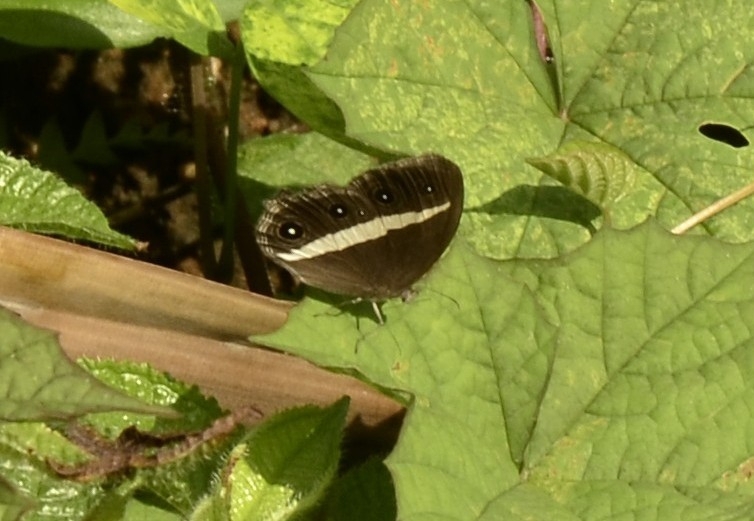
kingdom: Animalia
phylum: Arthropoda
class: Insecta
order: Lepidoptera
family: Nymphalidae
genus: Orsotriaena
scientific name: Orsotriaena medus
